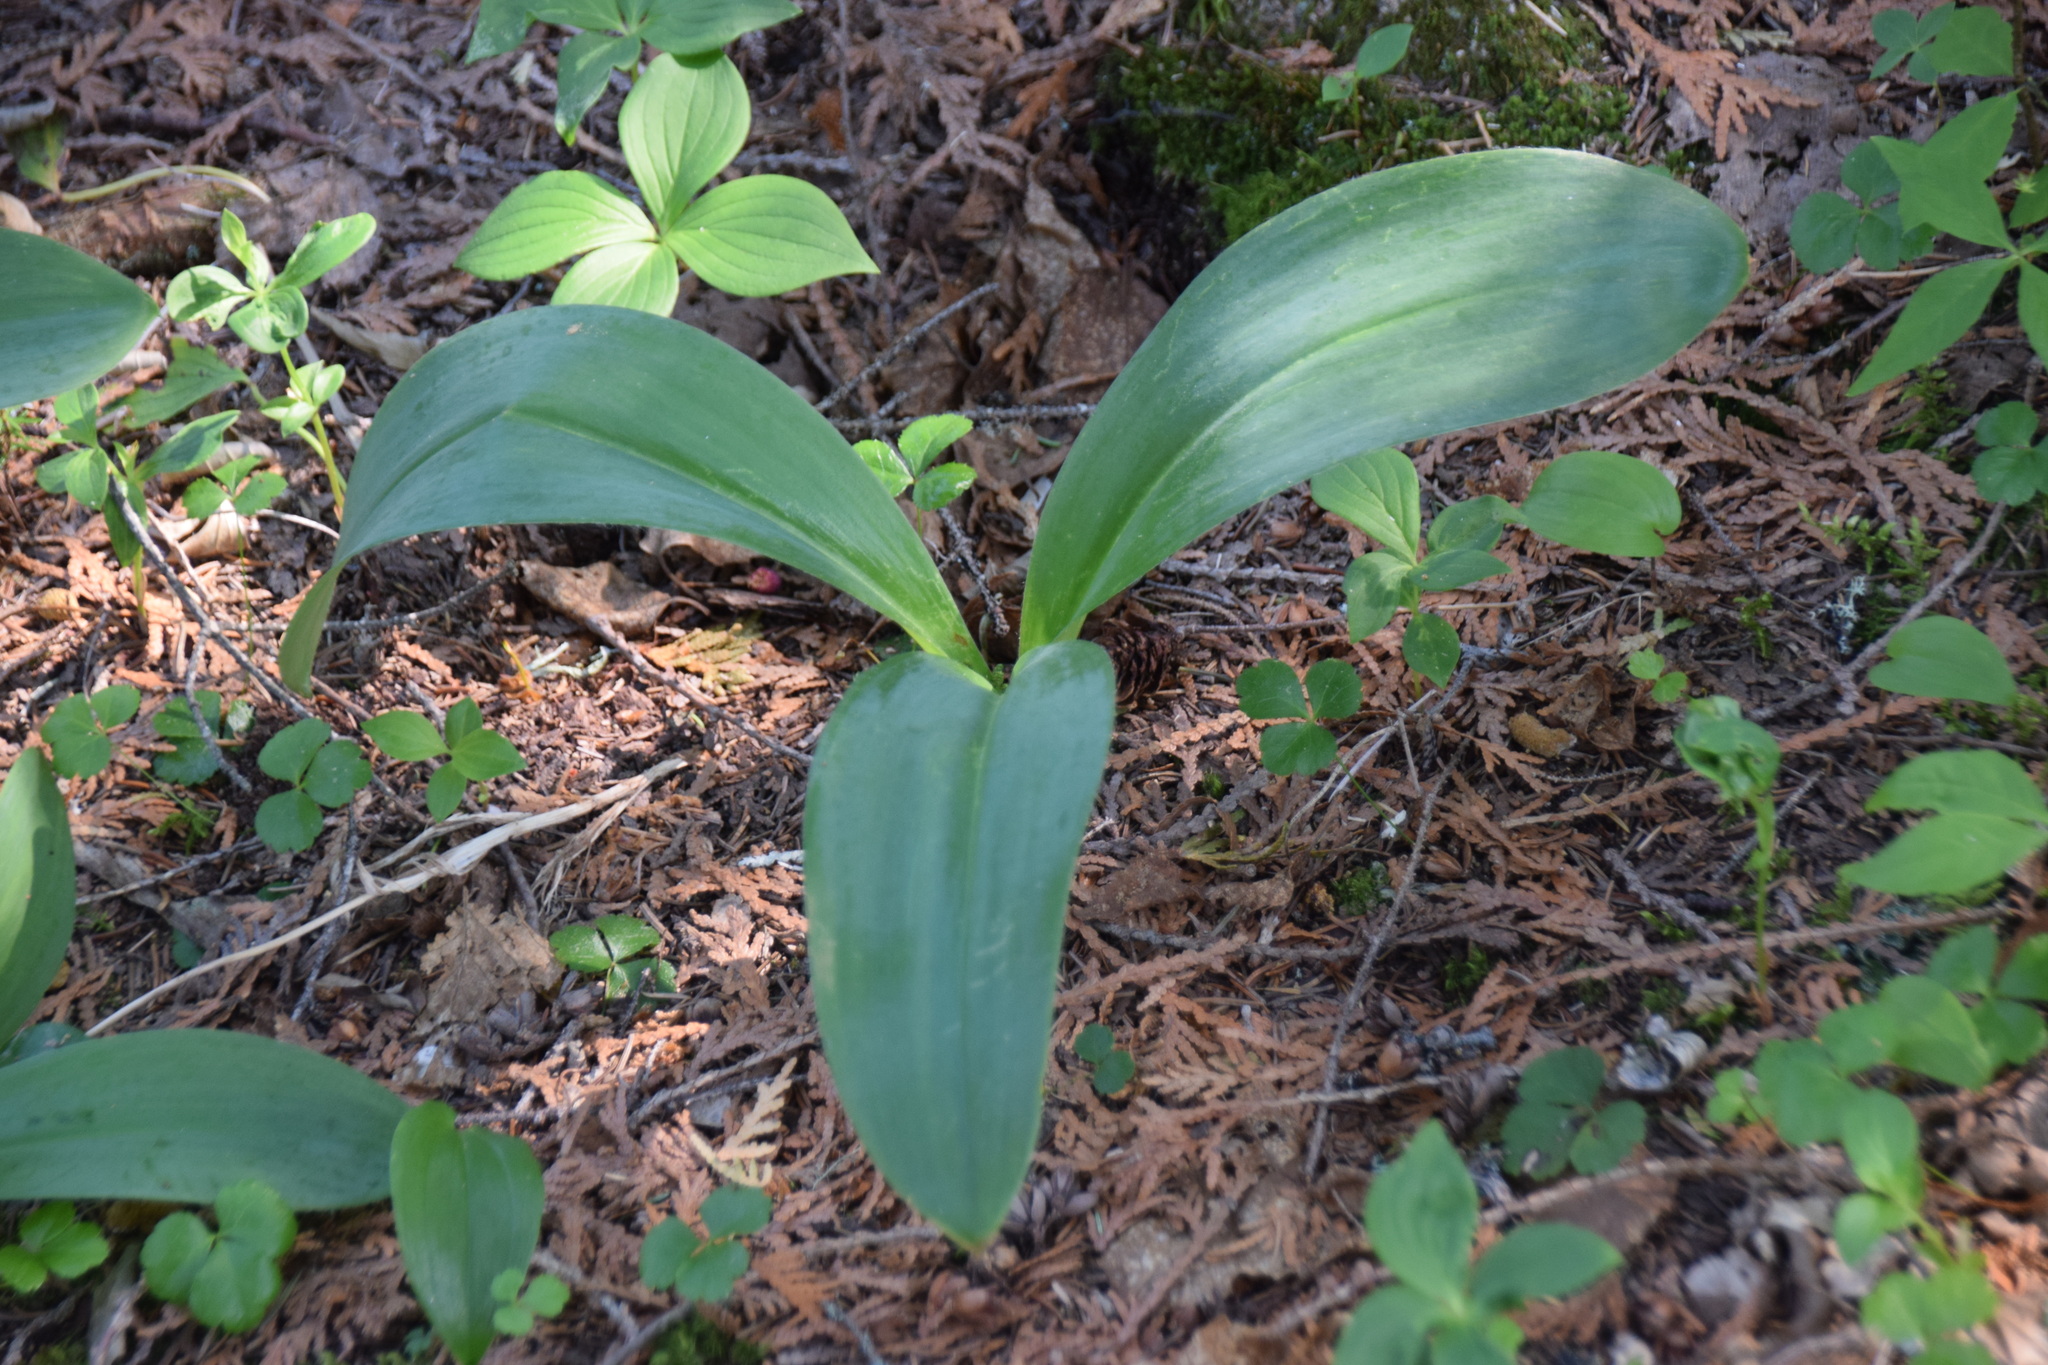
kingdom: Plantae
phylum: Tracheophyta
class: Liliopsida
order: Liliales
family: Liliaceae
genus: Clintonia
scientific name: Clintonia borealis
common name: Yellow clintonia
